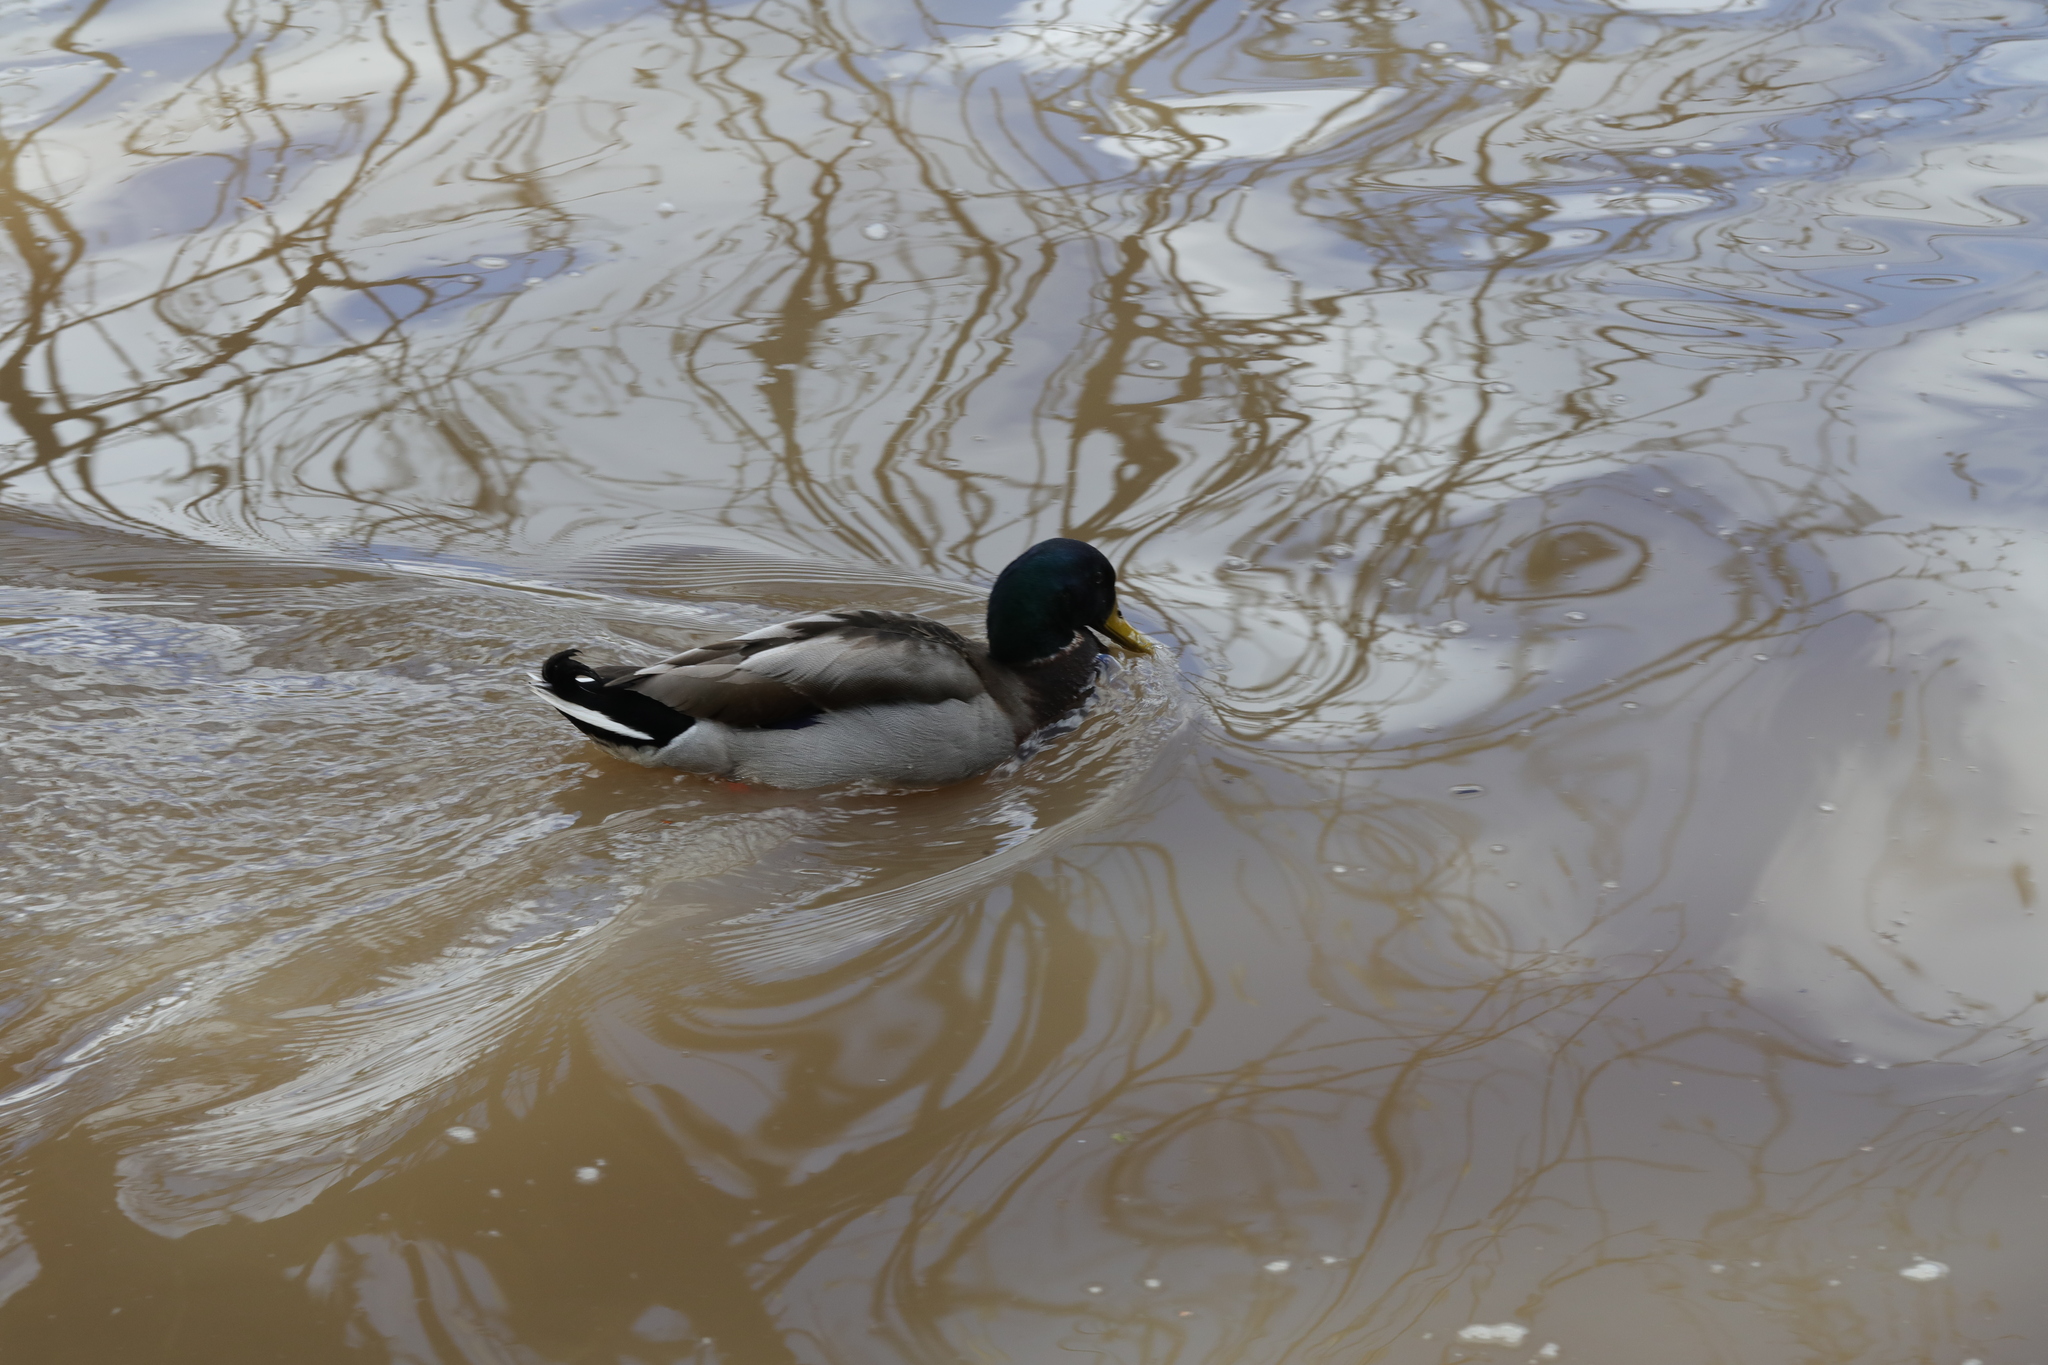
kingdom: Animalia
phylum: Chordata
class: Aves
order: Anseriformes
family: Anatidae
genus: Anas
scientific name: Anas platyrhynchos
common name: Mallard
